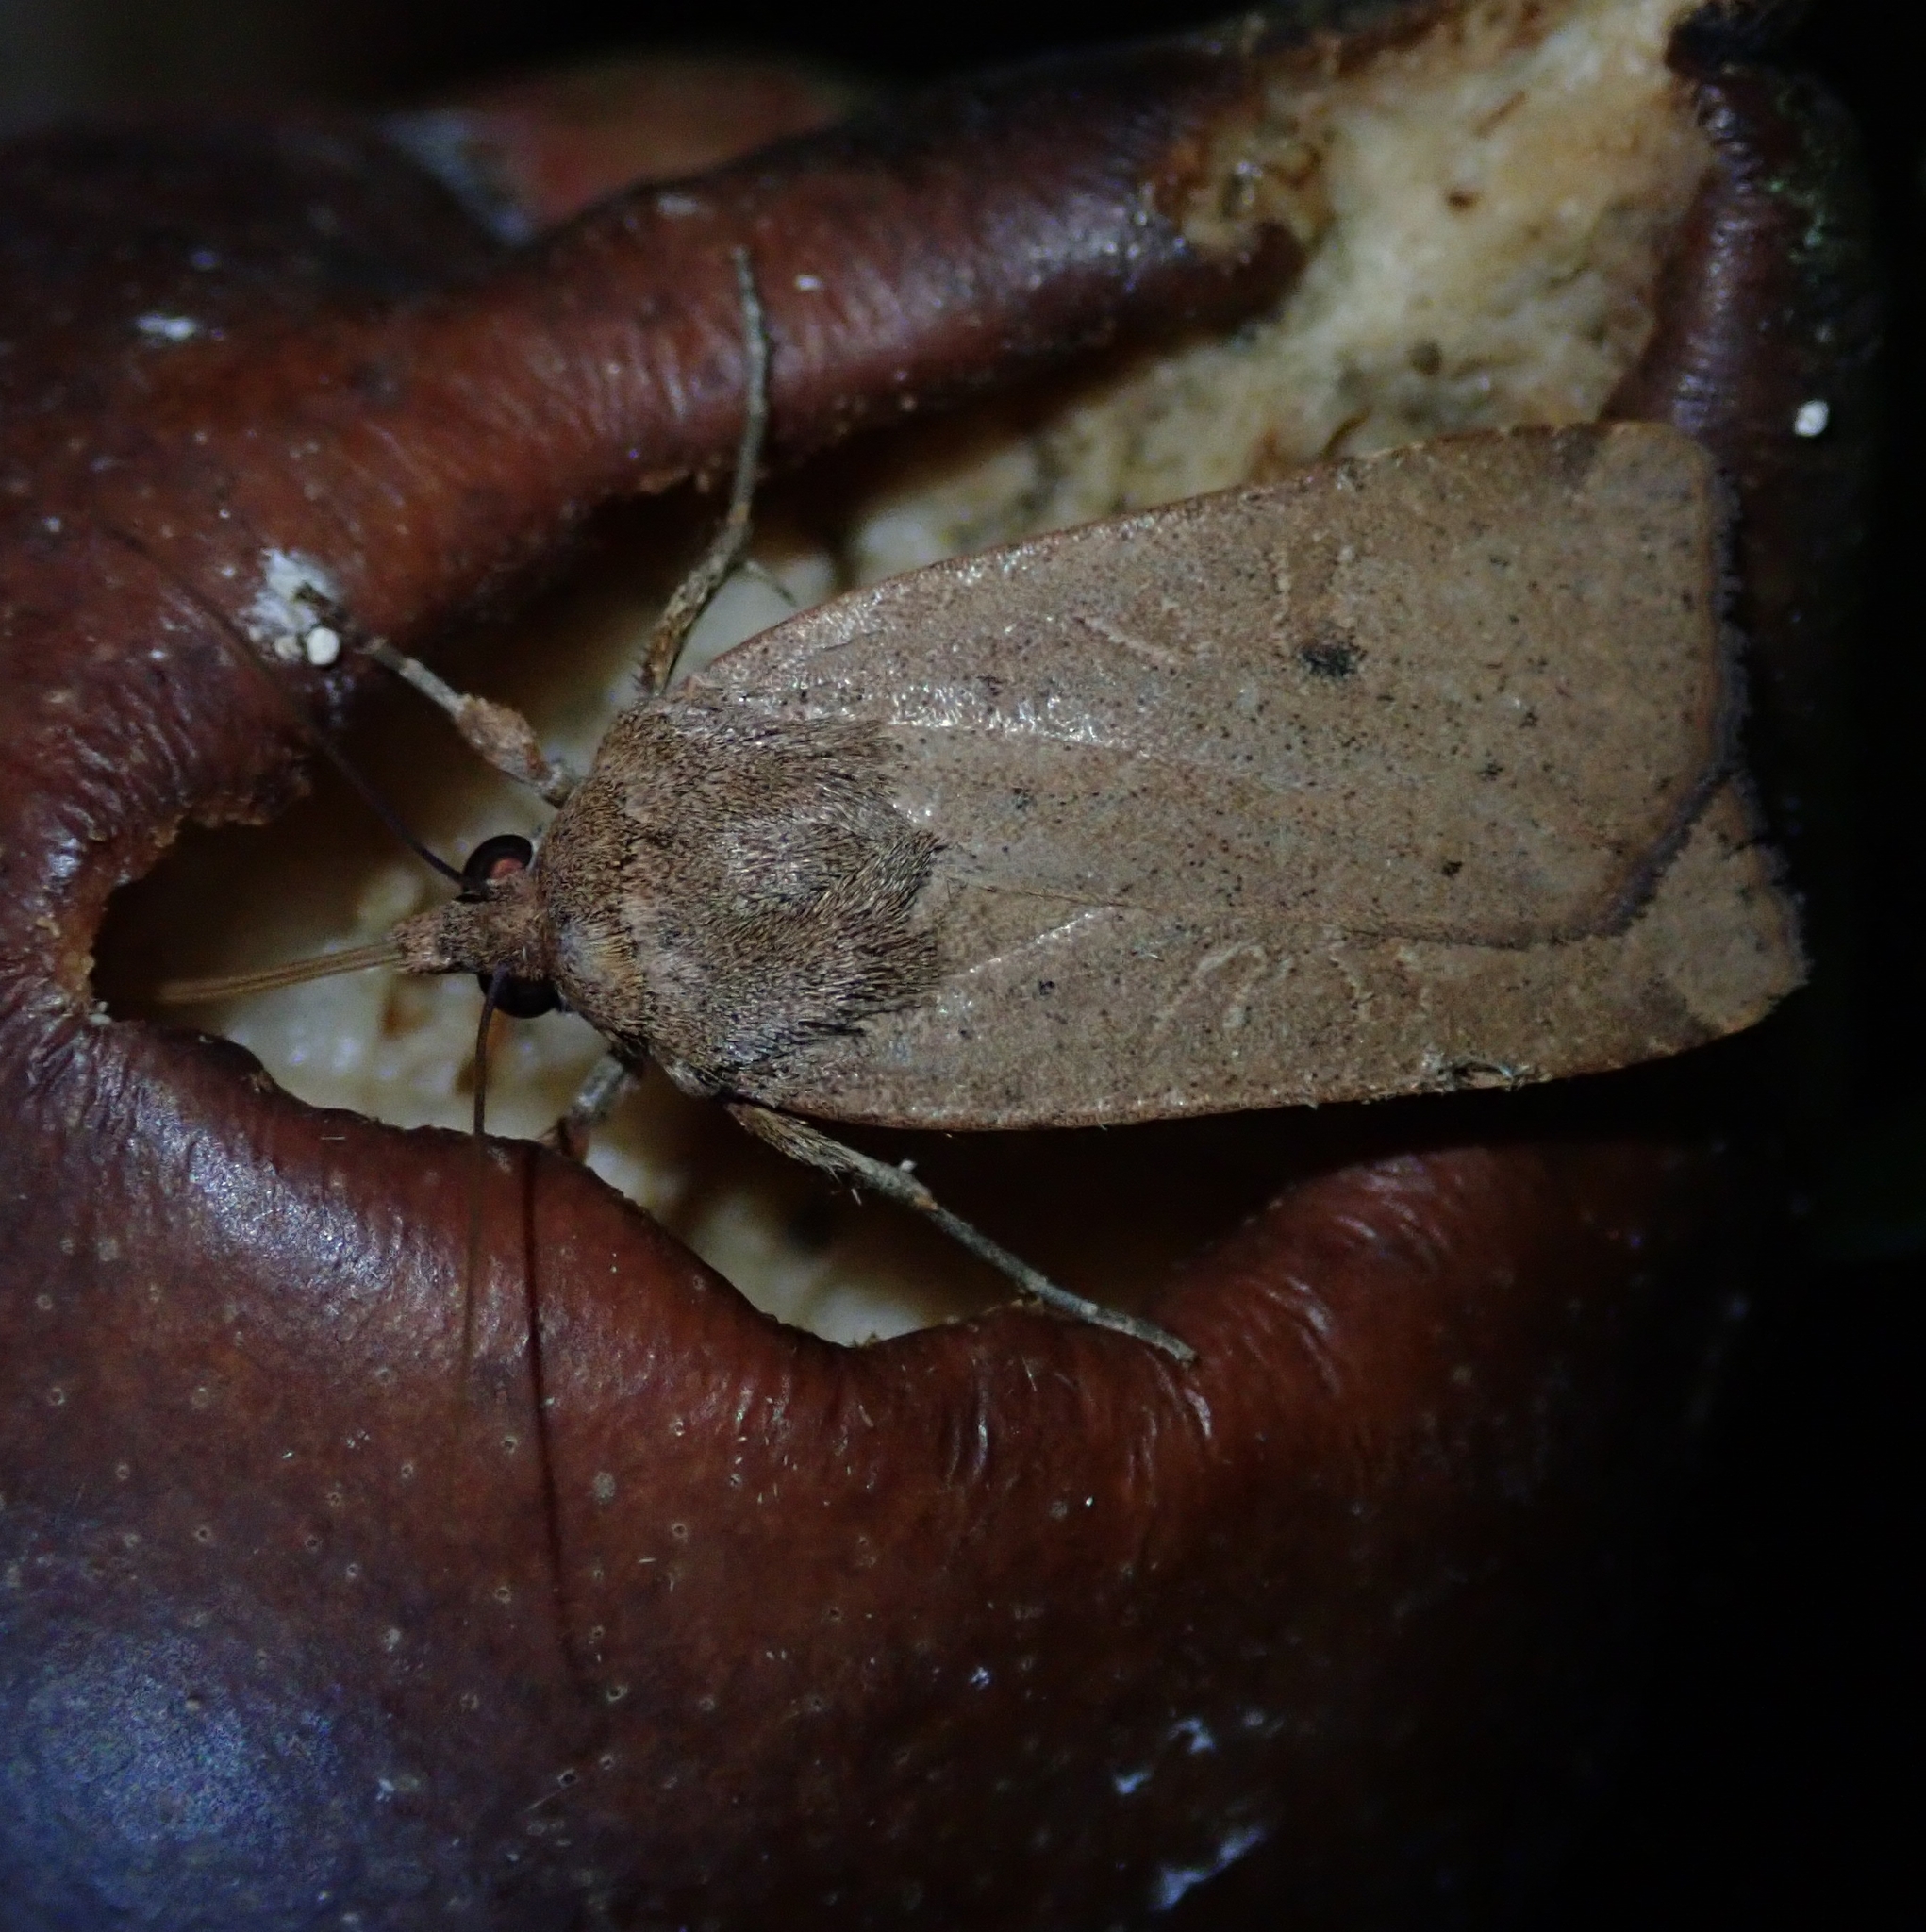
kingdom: Animalia
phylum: Arthropoda
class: Insecta
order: Lepidoptera
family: Noctuidae
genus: Noctua
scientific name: Noctua comes
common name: Lesser yellow underwing
